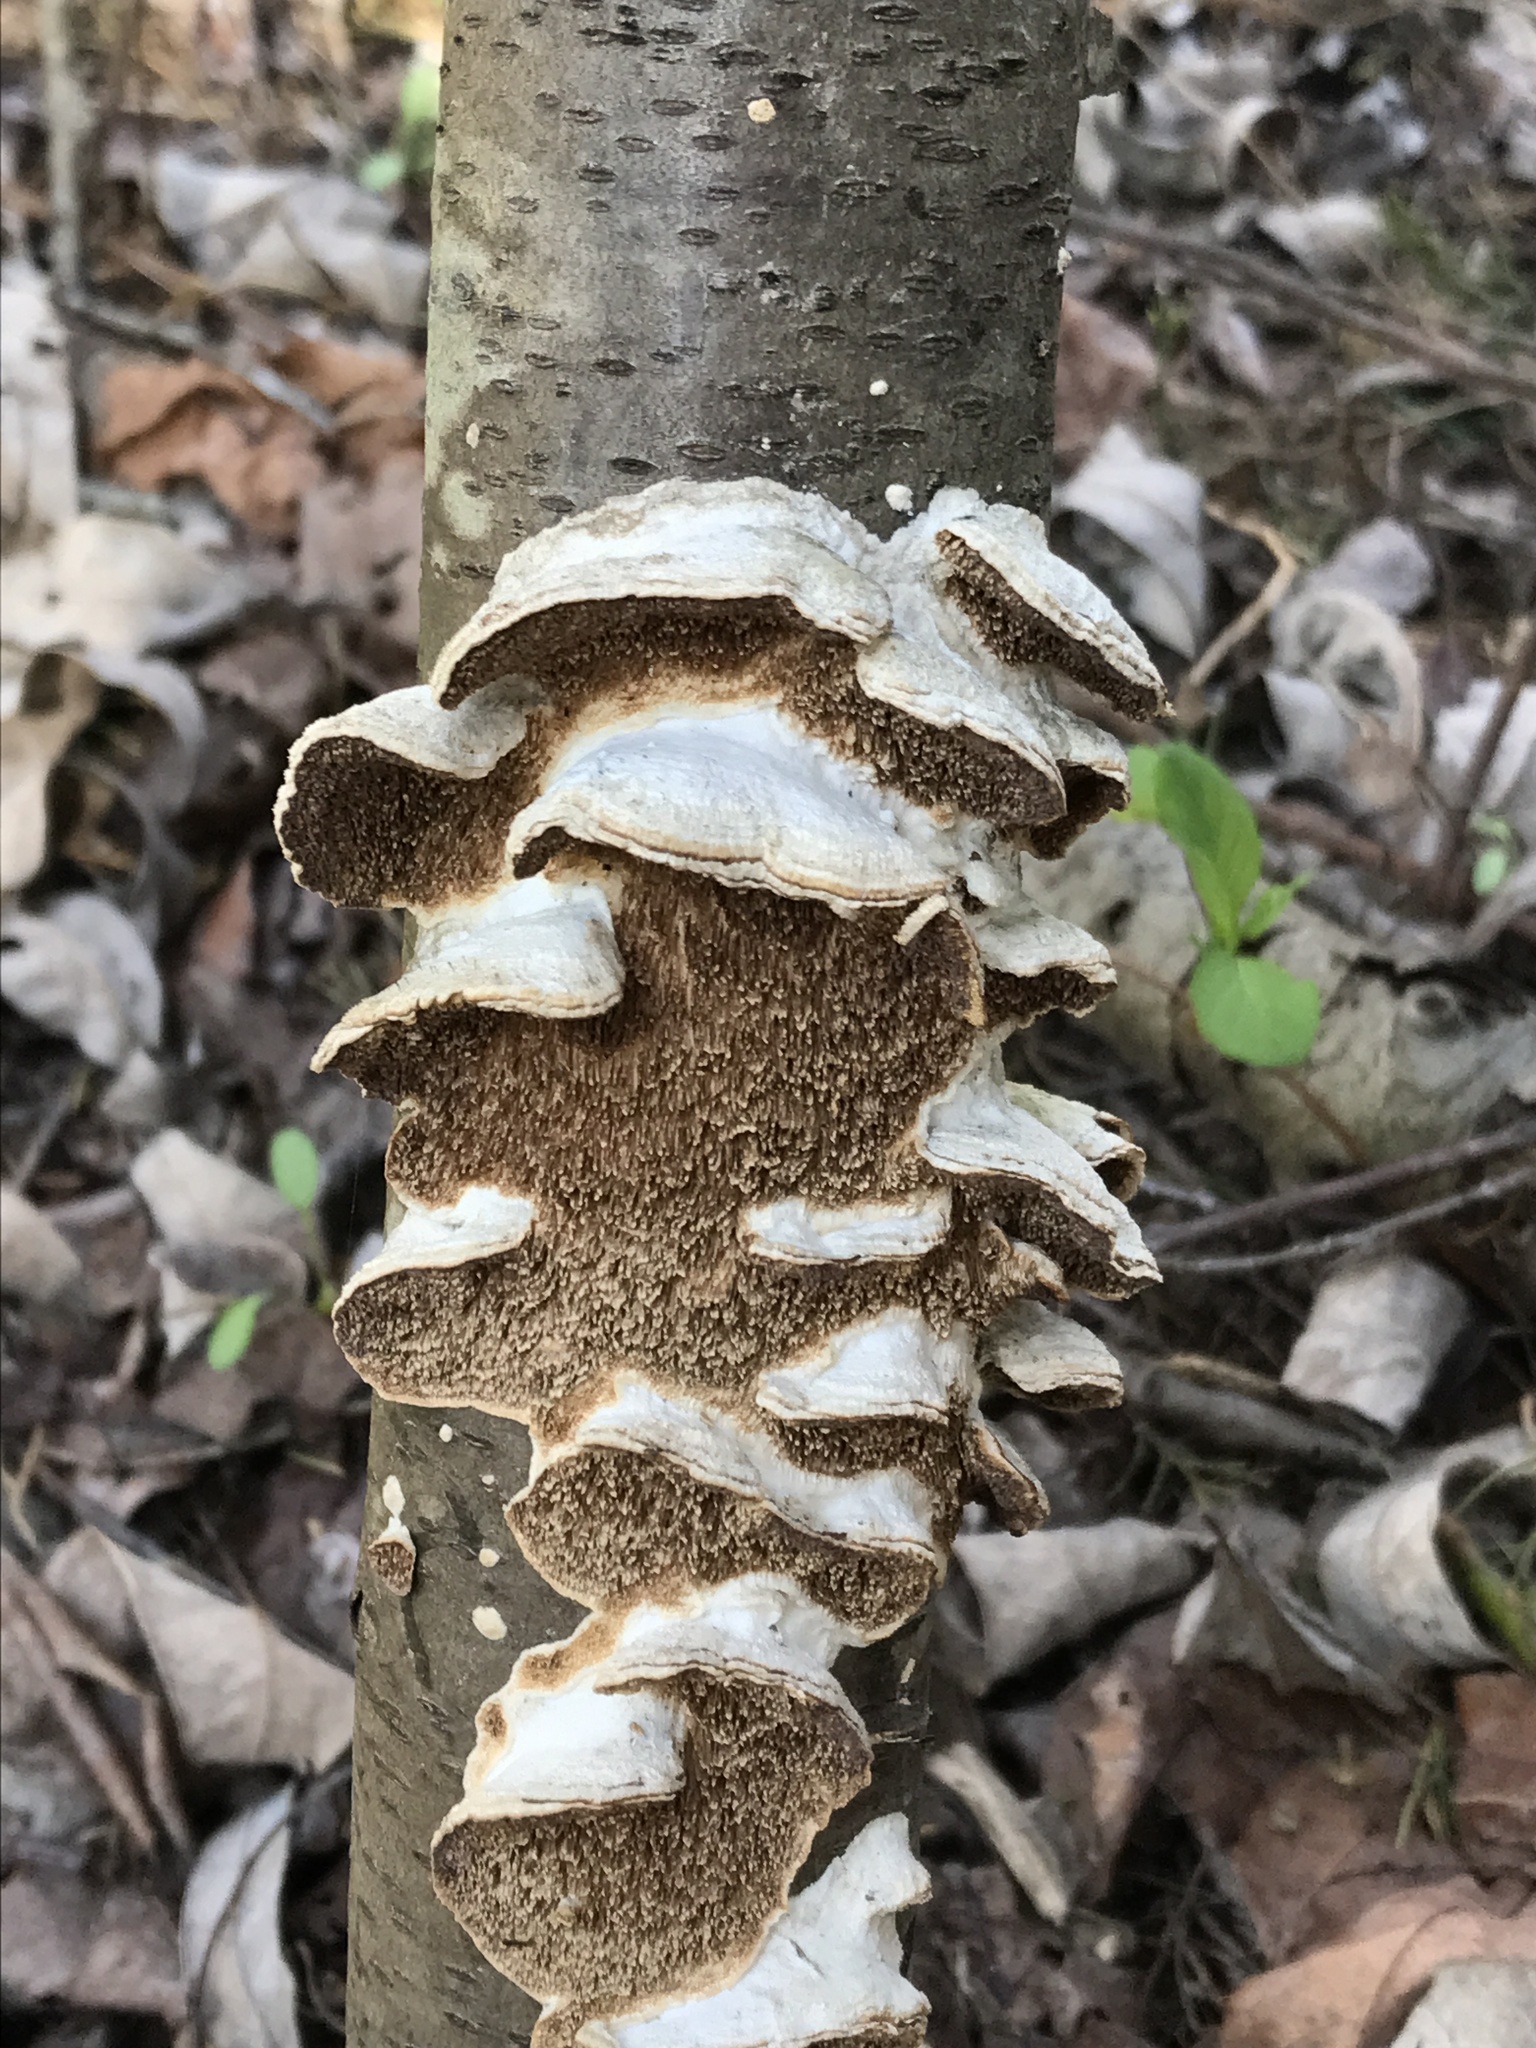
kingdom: Fungi
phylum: Basidiomycota
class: Agaricomycetes
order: Hymenochaetales
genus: Trichaptum
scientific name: Trichaptum biforme
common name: Violet-toothed polypore
